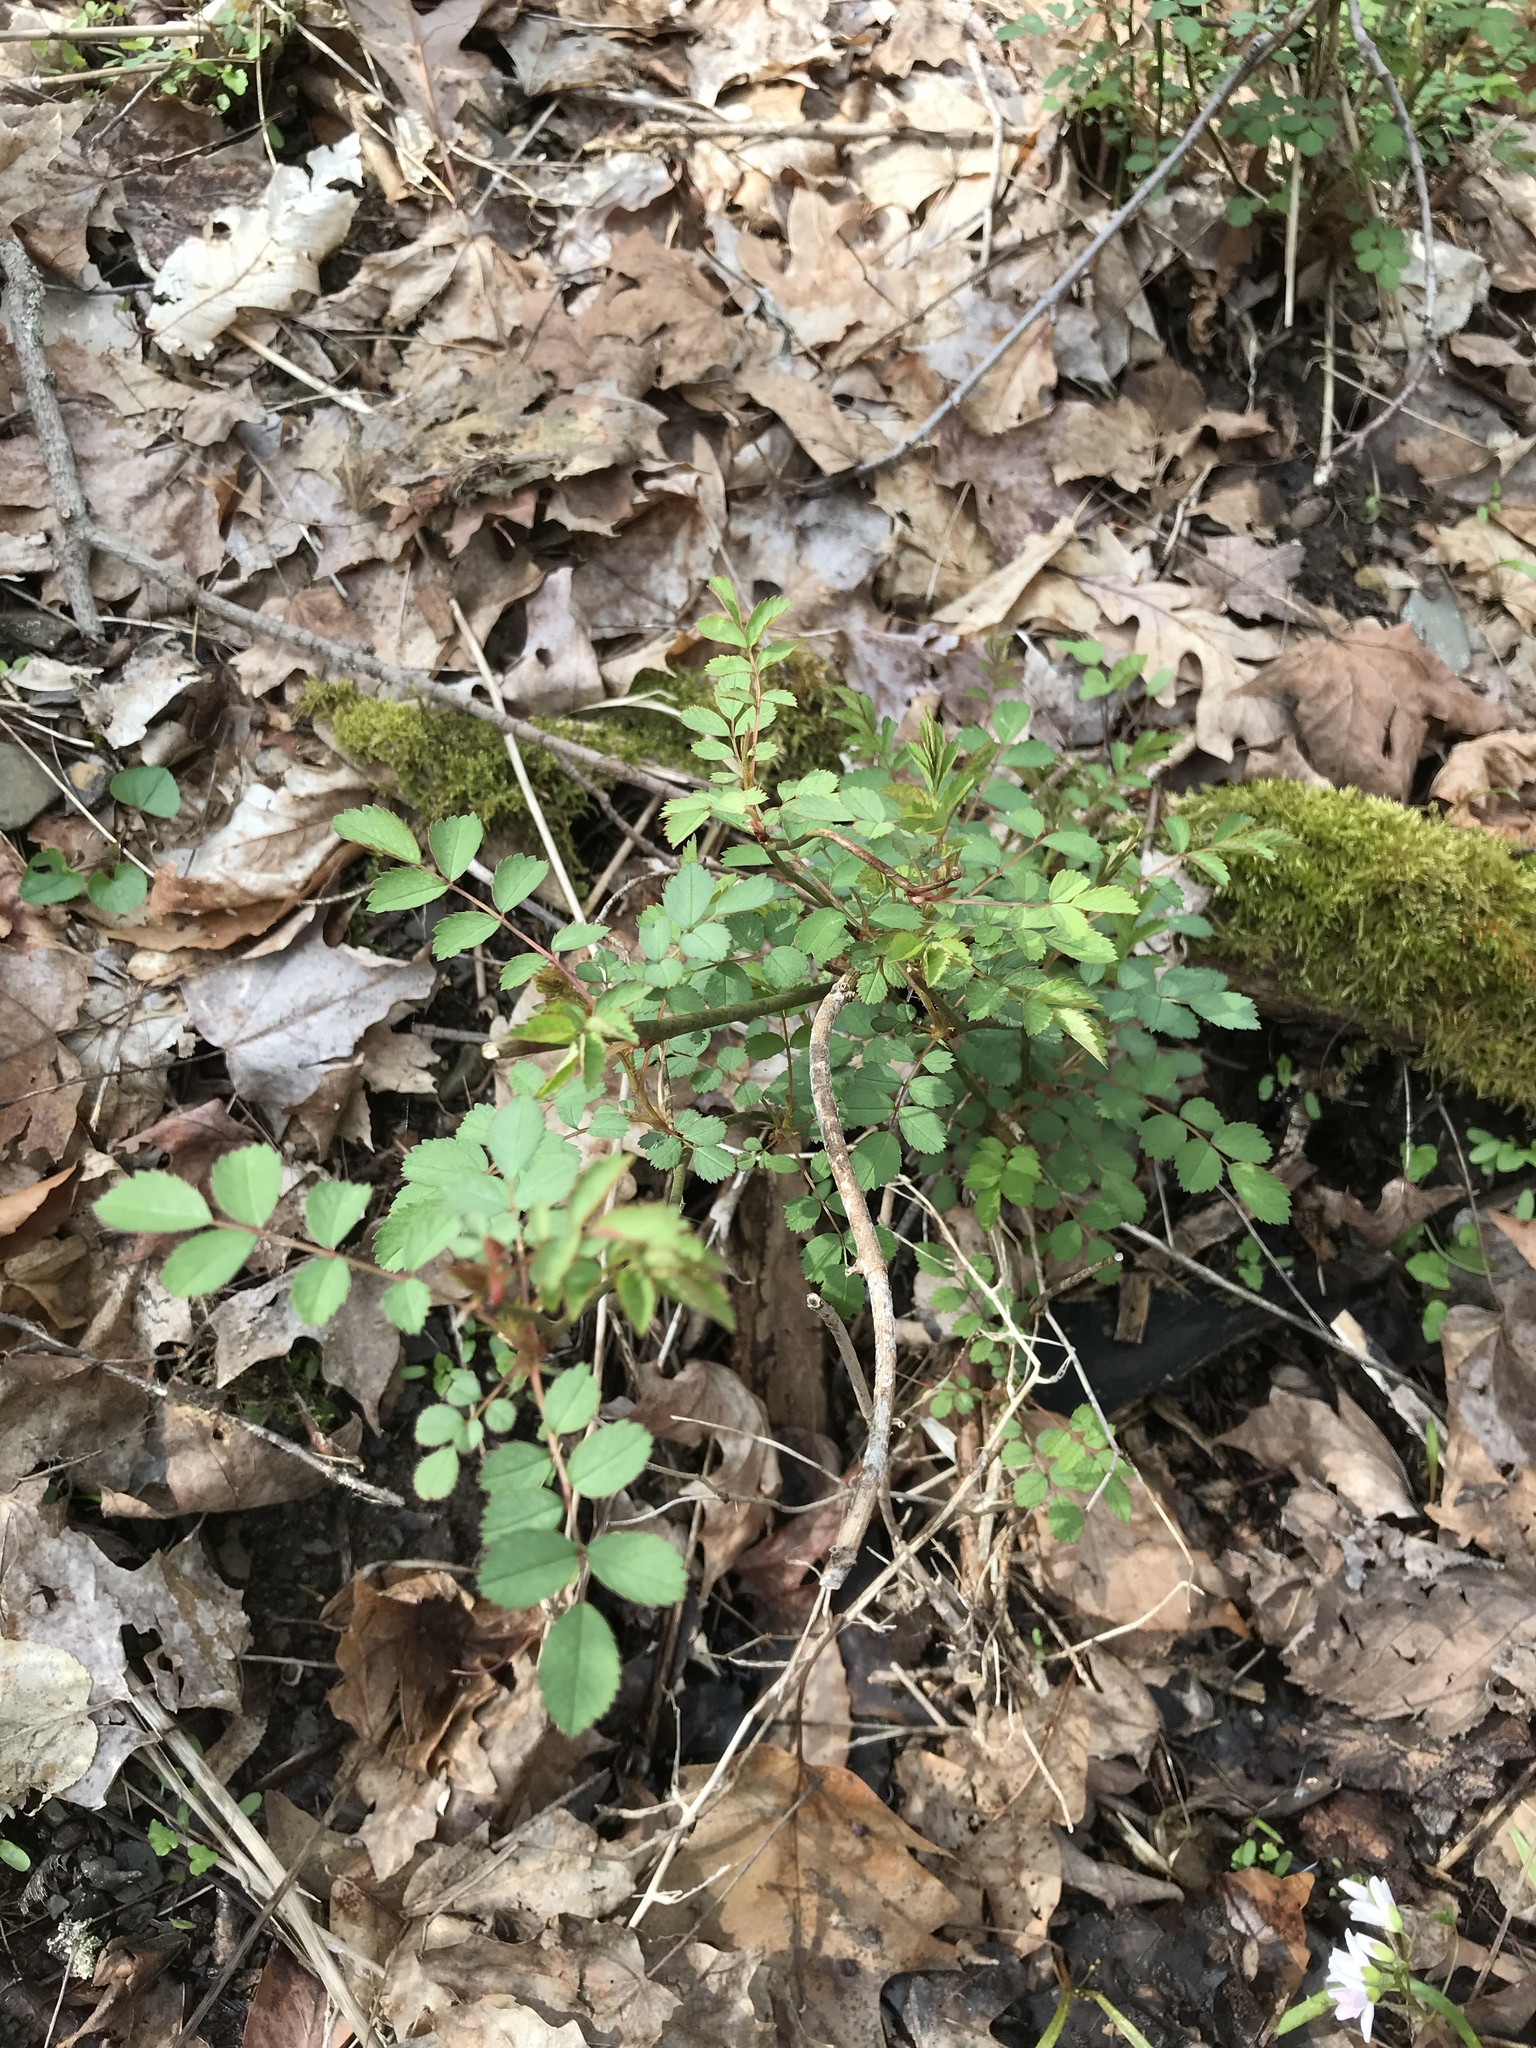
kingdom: Plantae
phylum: Tracheophyta
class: Magnoliopsida
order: Rosales
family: Rosaceae
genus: Rosa
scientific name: Rosa multiflora
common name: Multiflora rose
